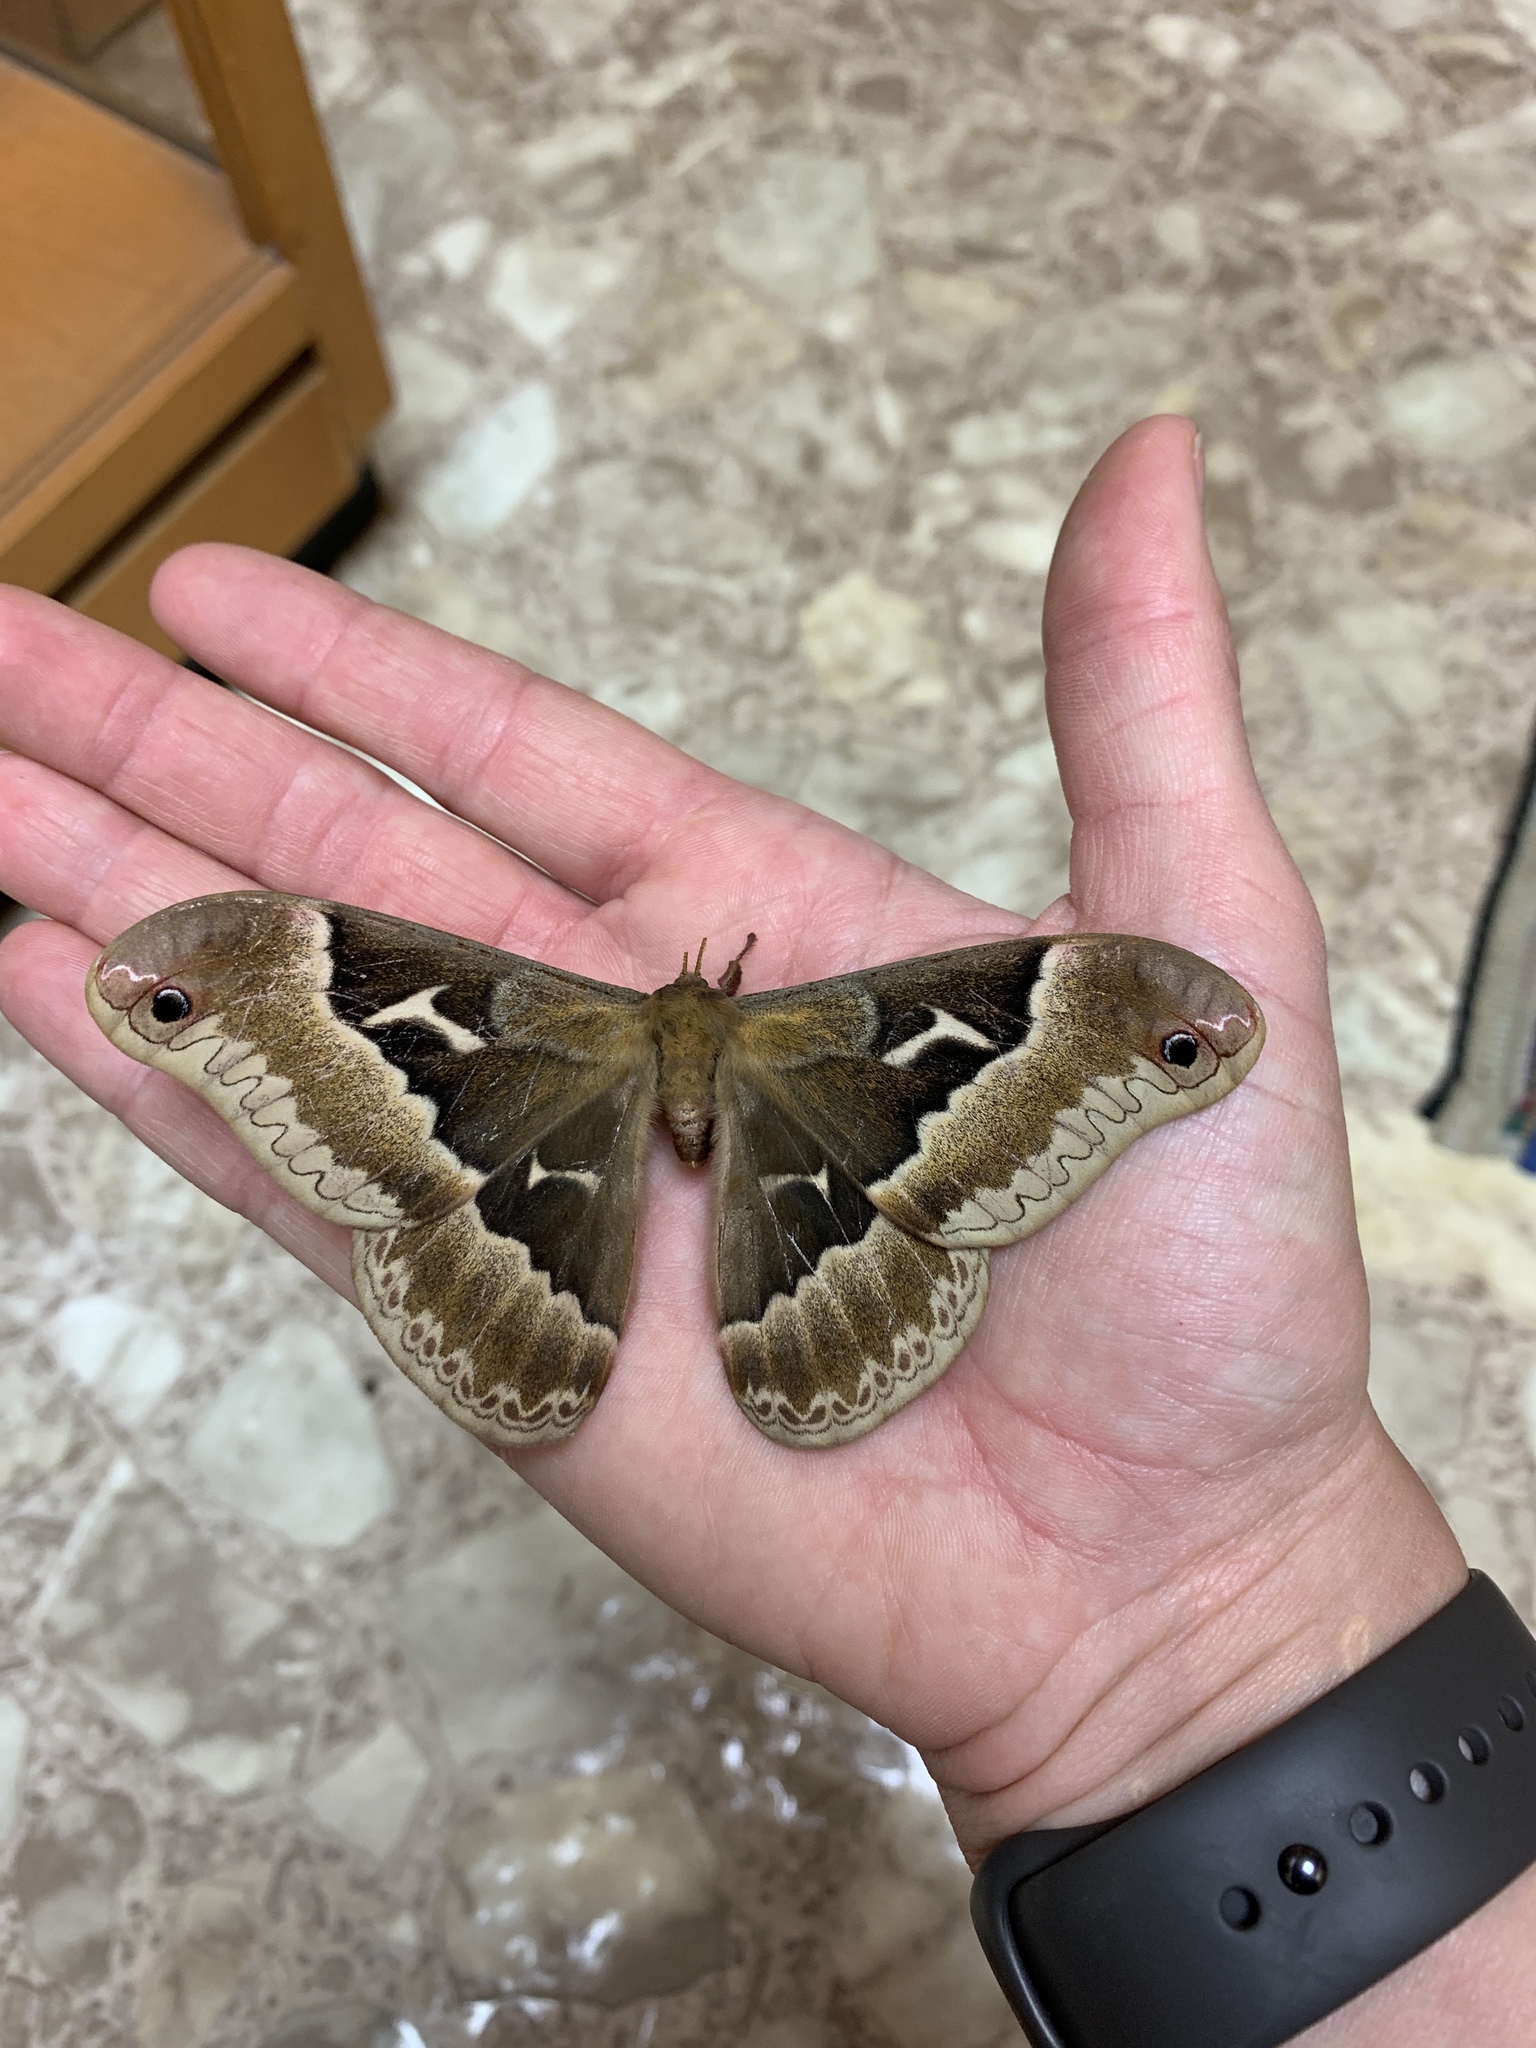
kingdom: Animalia
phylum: Arthropoda
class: Insecta
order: Lepidoptera
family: Saturniidae
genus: Callosamia
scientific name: Callosamia angulifera
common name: Tulip tree silkmoth
